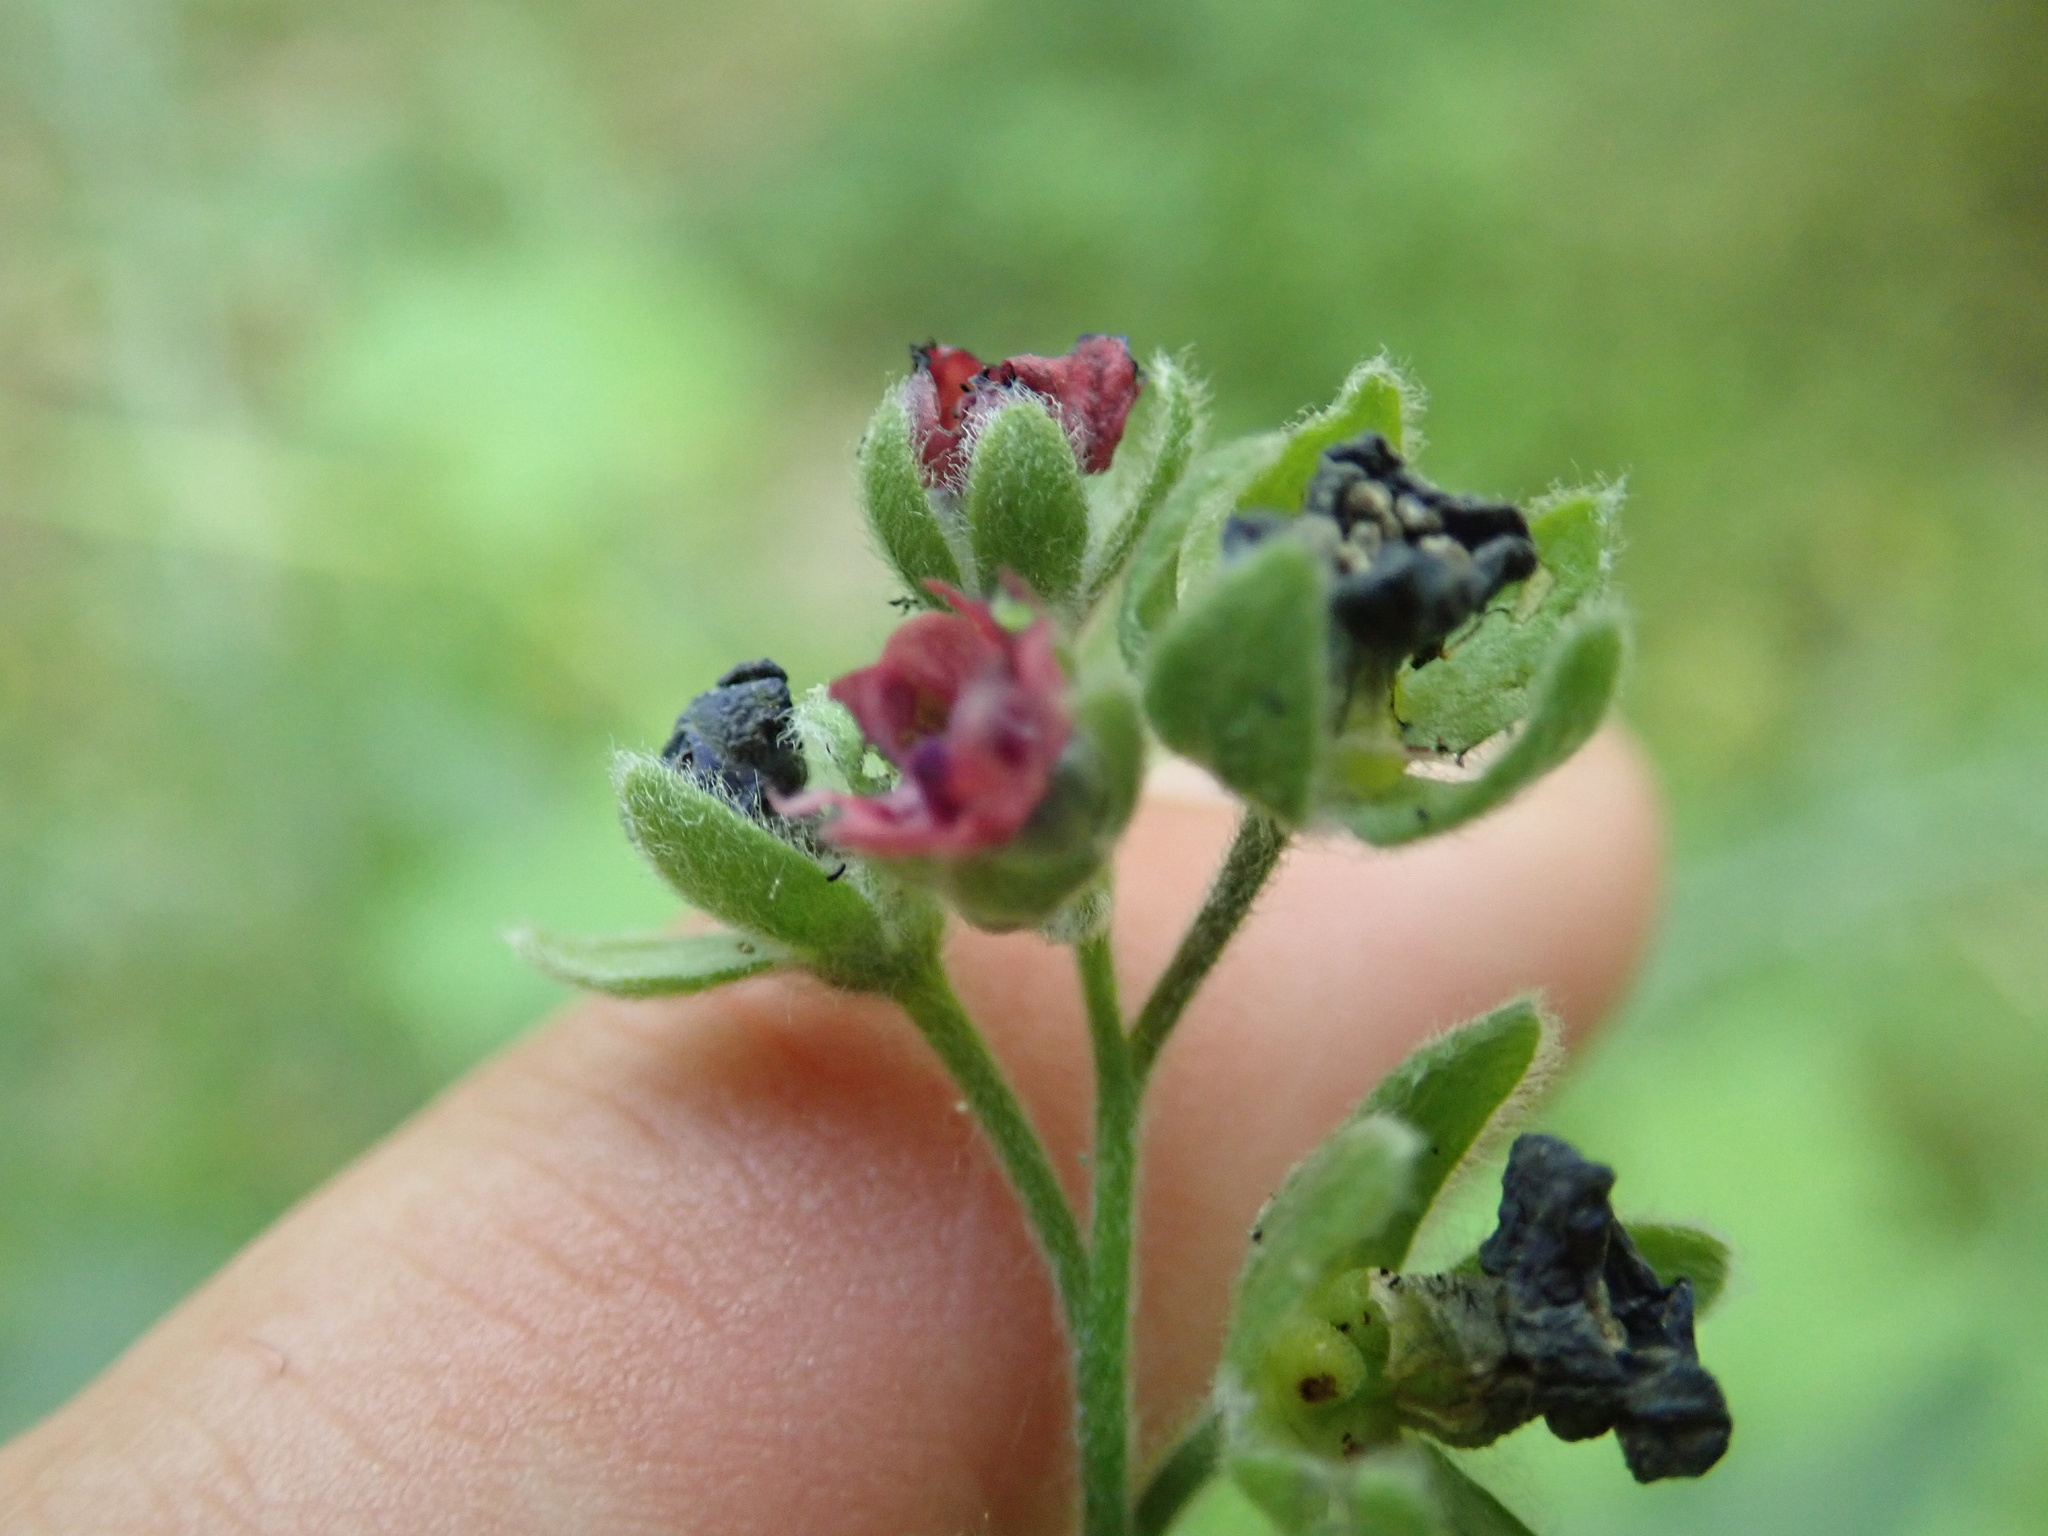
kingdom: Plantae
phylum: Tracheophyta
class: Magnoliopsida
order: Boraginales
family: Boraginaceae
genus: Cynoglossum
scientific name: Cynoglossum officinale
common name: Hound's-tongue
